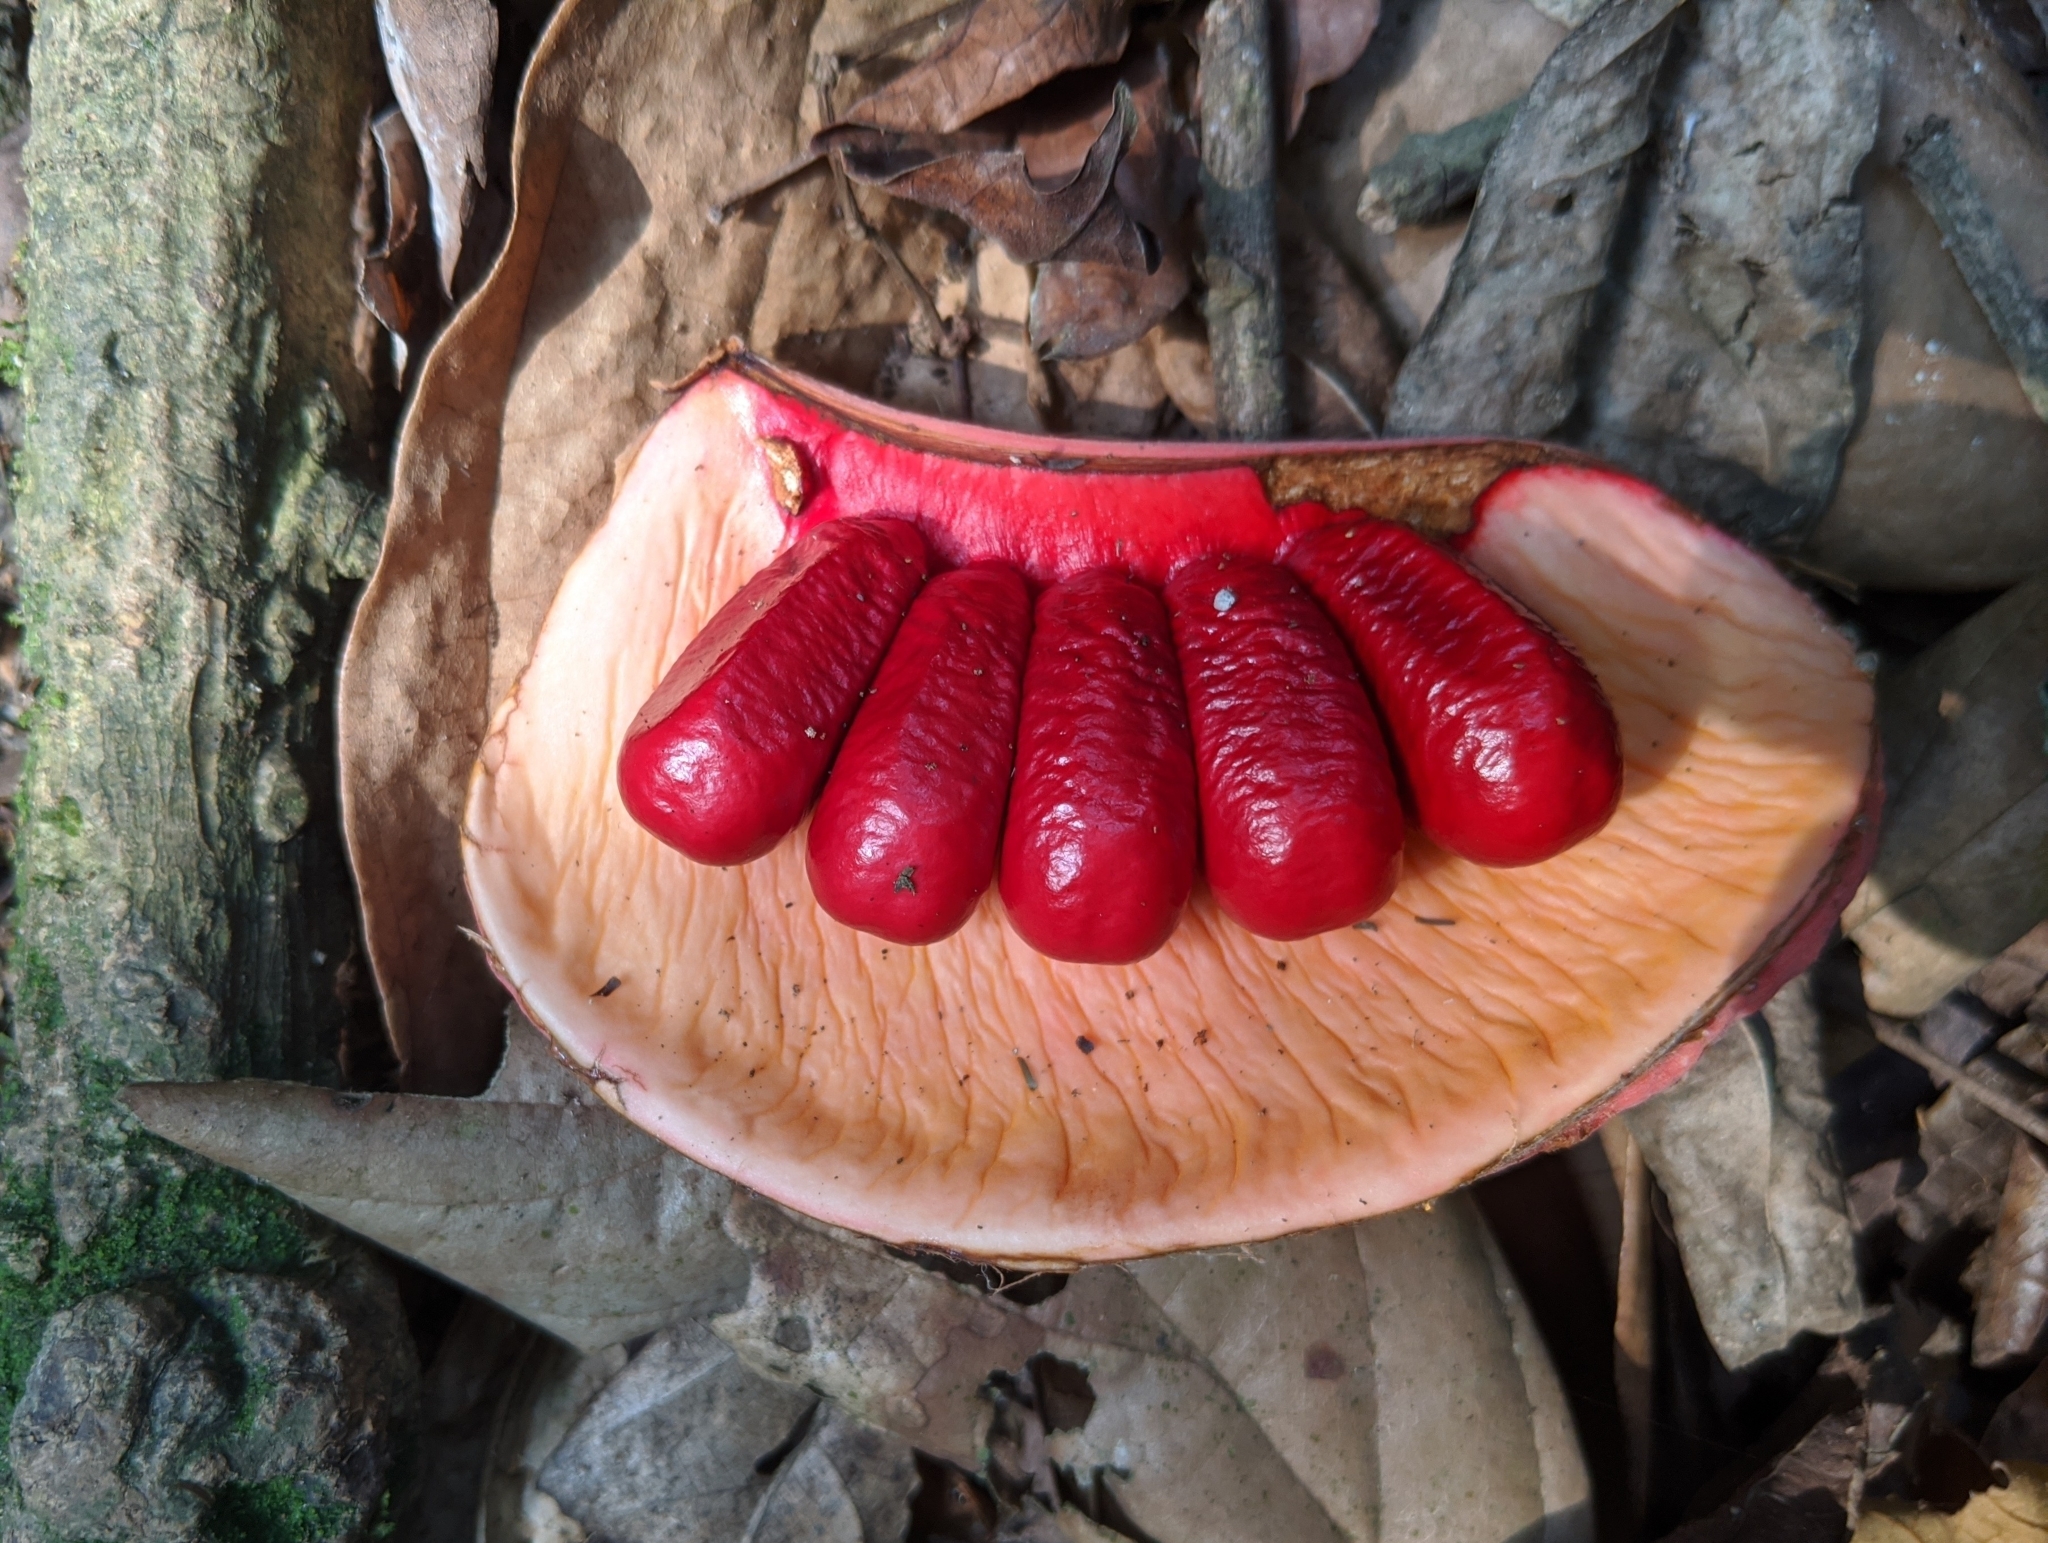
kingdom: Plantae
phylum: Tracheophyta
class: Magnoliopsida
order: Malvales
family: Malvaceae
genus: Cola
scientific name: Cola chlamydantha
